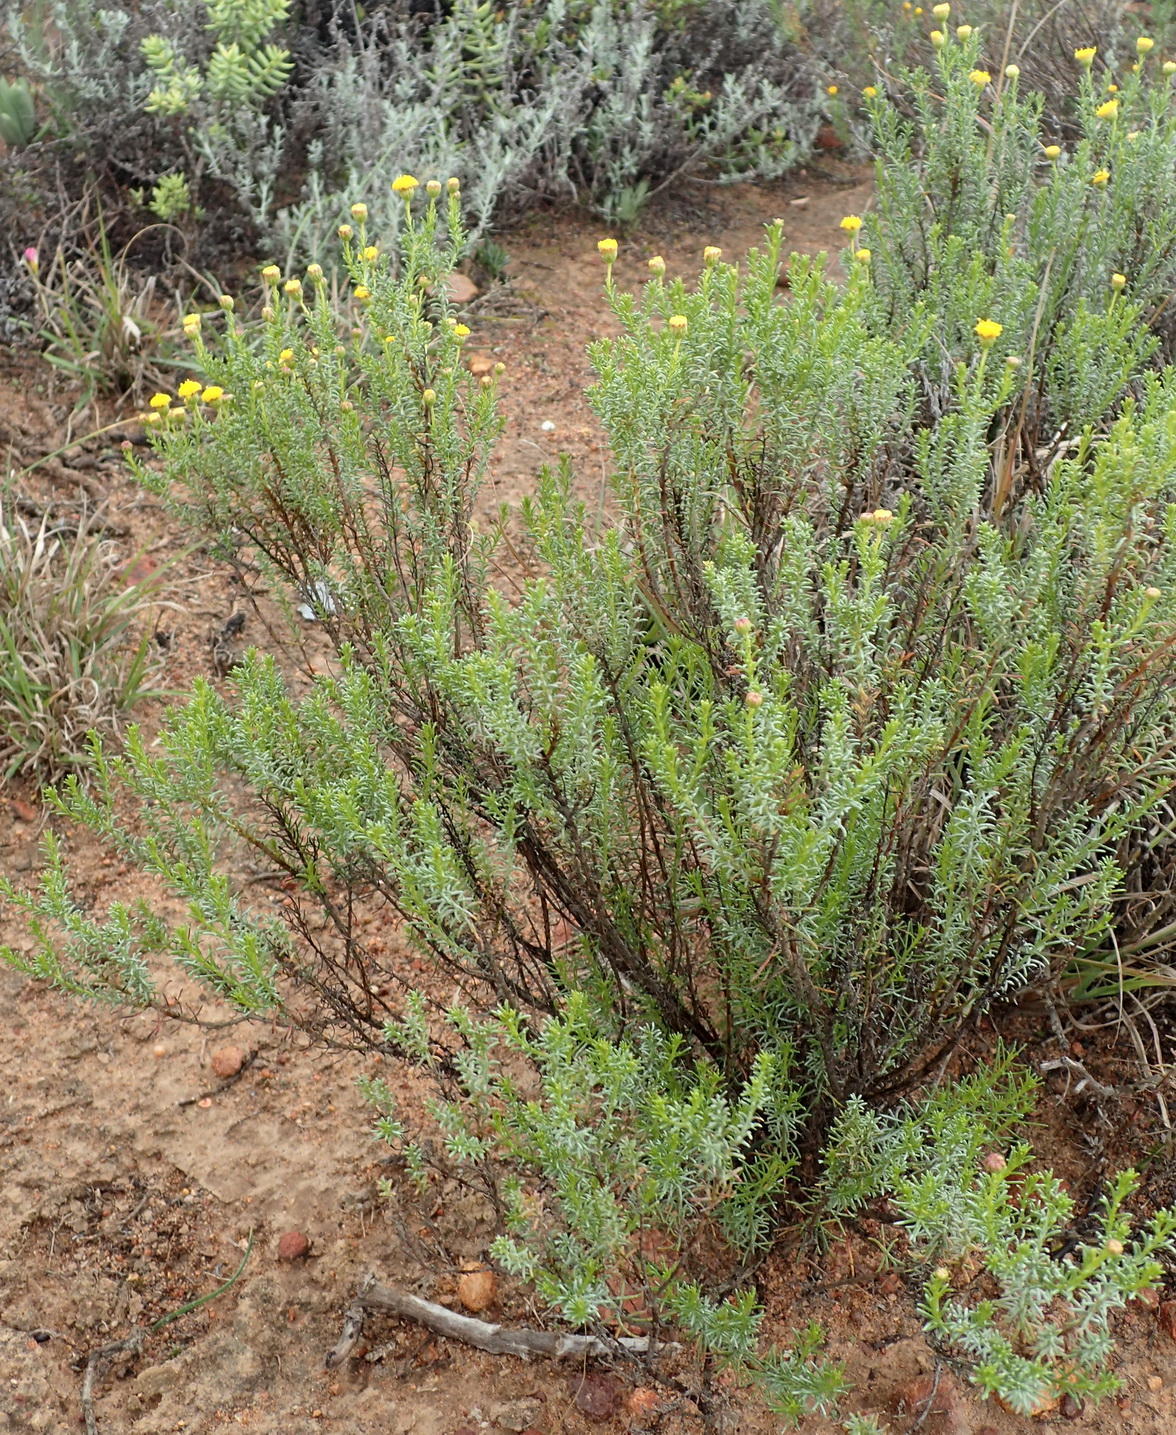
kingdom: Plantae
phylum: Tracheophyta
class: Magnoliopsida
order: Asterales
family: Asteraceae
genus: Chrysocoma
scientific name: Chrysocoma ciliata
